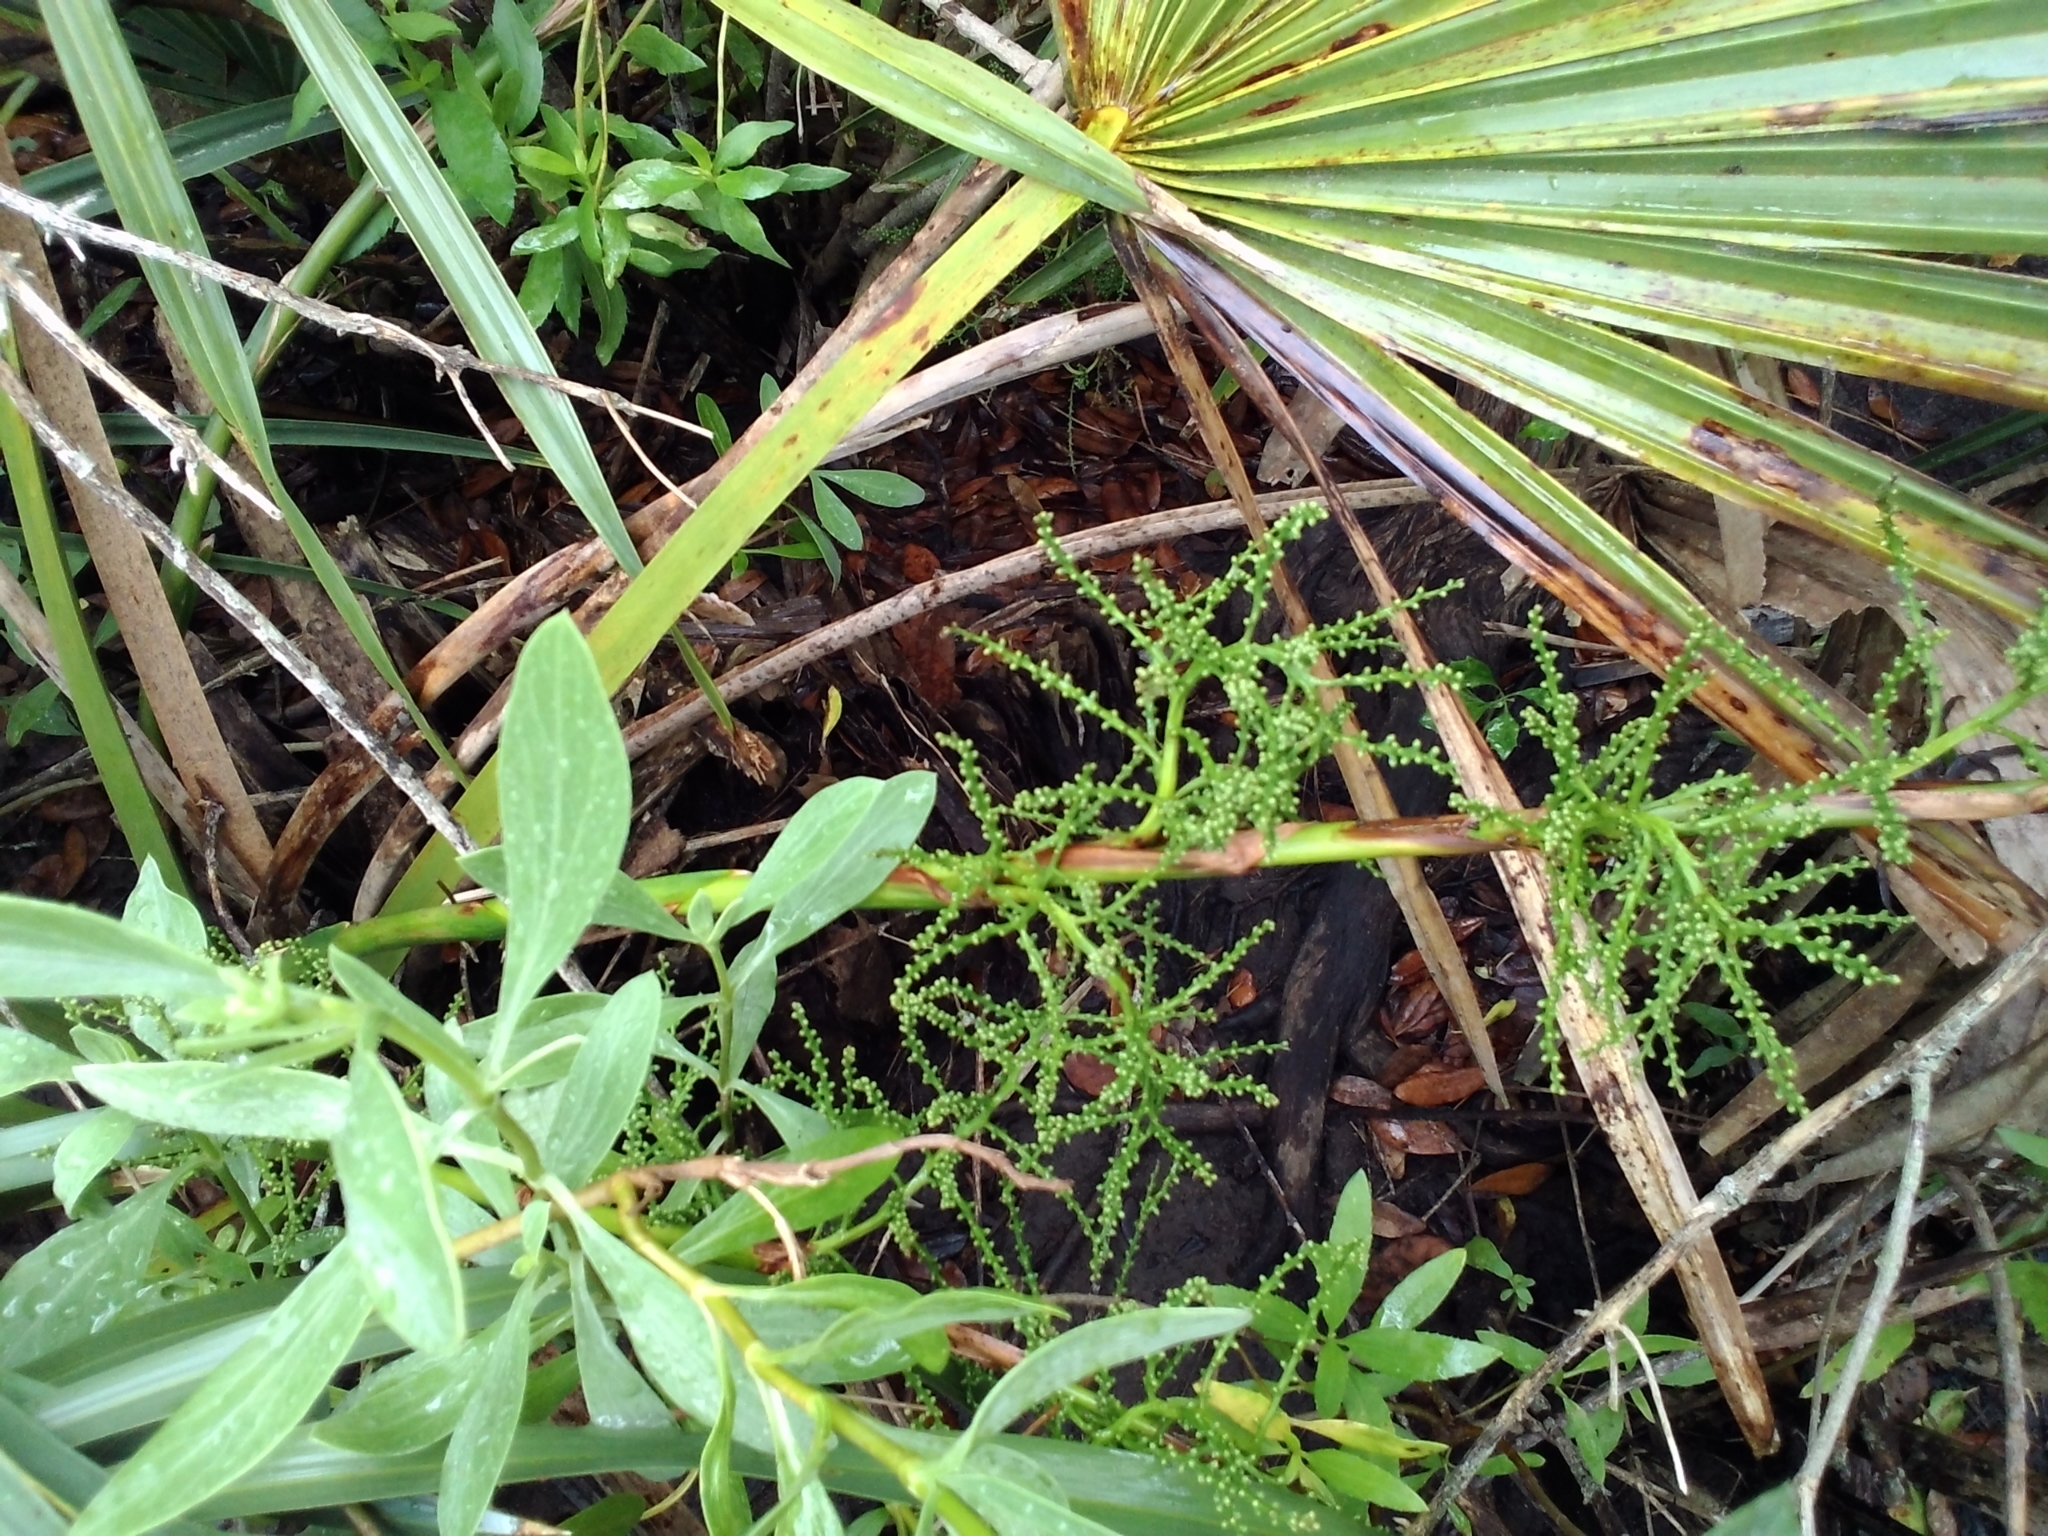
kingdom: Plantae
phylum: Tracheophyta
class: Liliopsida
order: Arecales
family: Arecaceae
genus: Sabal
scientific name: Sabal palmetto
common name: Blue palmetto
